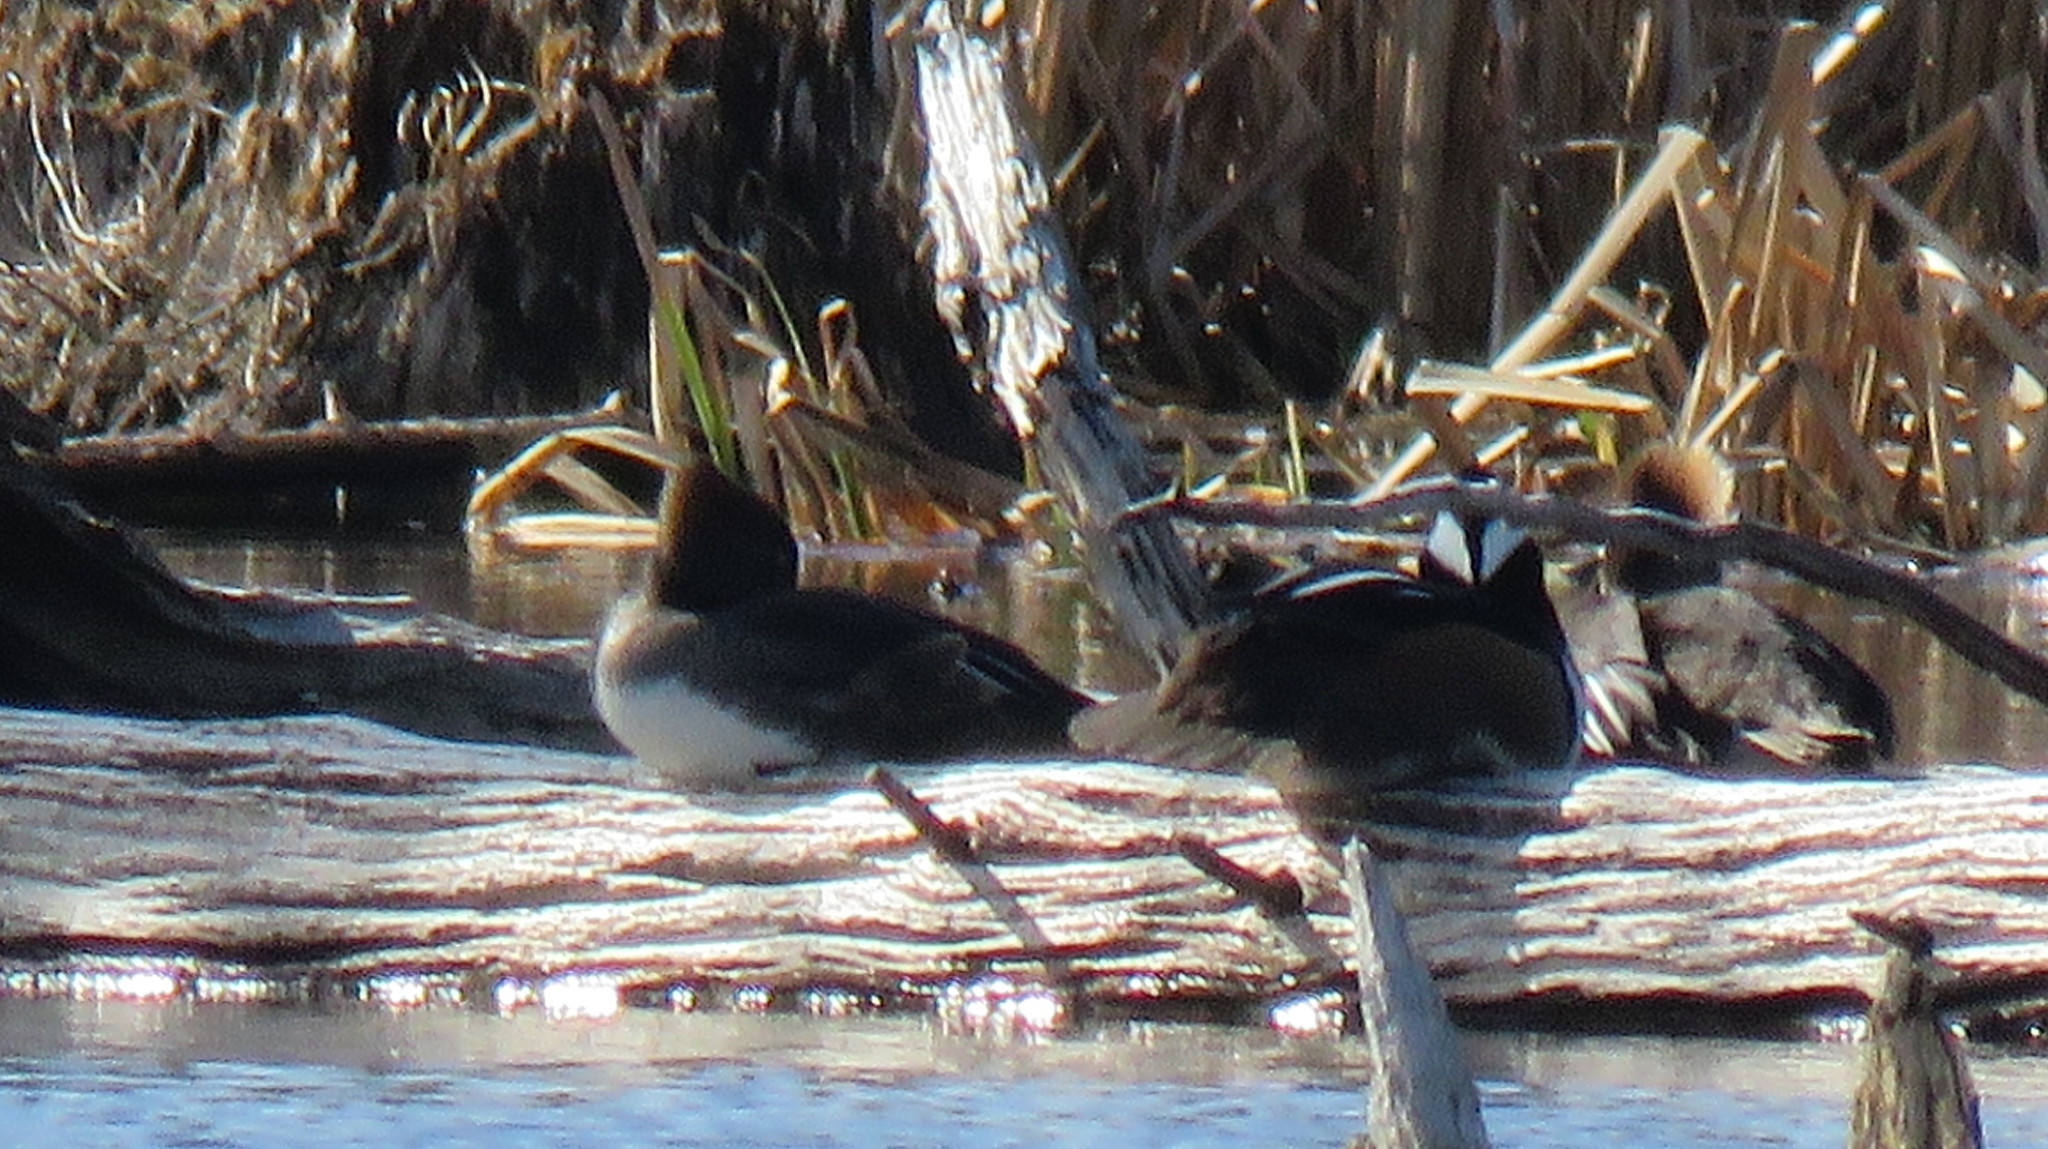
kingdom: Animalia
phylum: Chordata
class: Aves
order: Anseriformes
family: Anatidae
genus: Lophodytes
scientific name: Lophodytes cucullatus
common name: Hooded merganser
